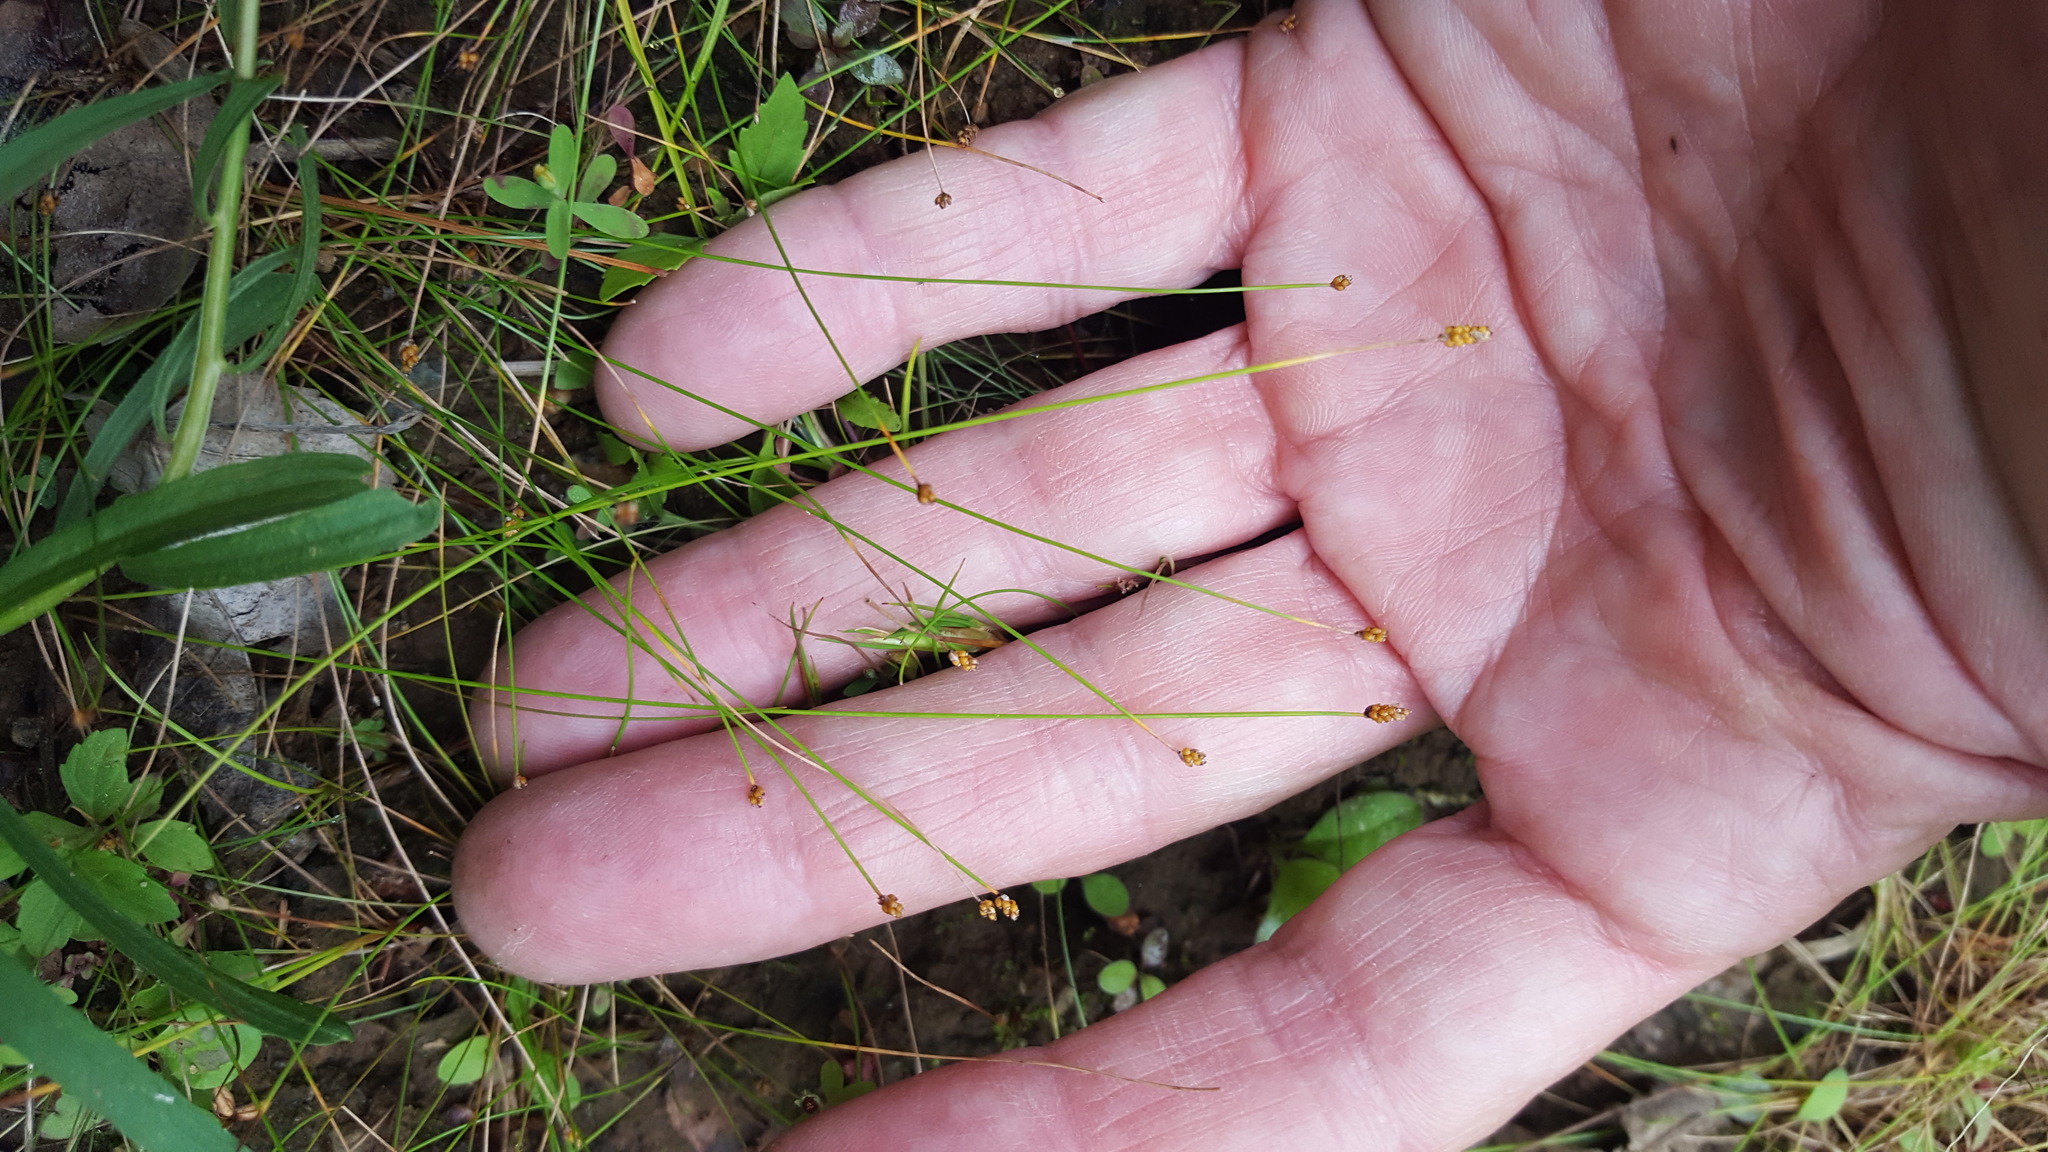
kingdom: Plantae
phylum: Tracheophyta
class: Liliopsida
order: Poales
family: Poaceae
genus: Muhlenbergia
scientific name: Muhlenbergia uniflora
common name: Bog muhly
